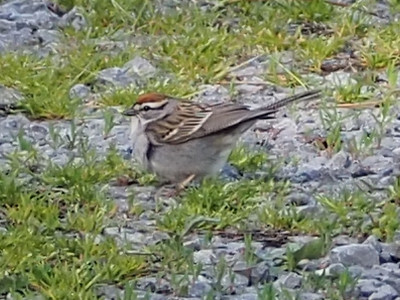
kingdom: Animalia
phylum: Chordata
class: Aves
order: Passeriformes
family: Passerellidae
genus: Spizella
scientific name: Spizella passerina
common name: Chipping sparrow
